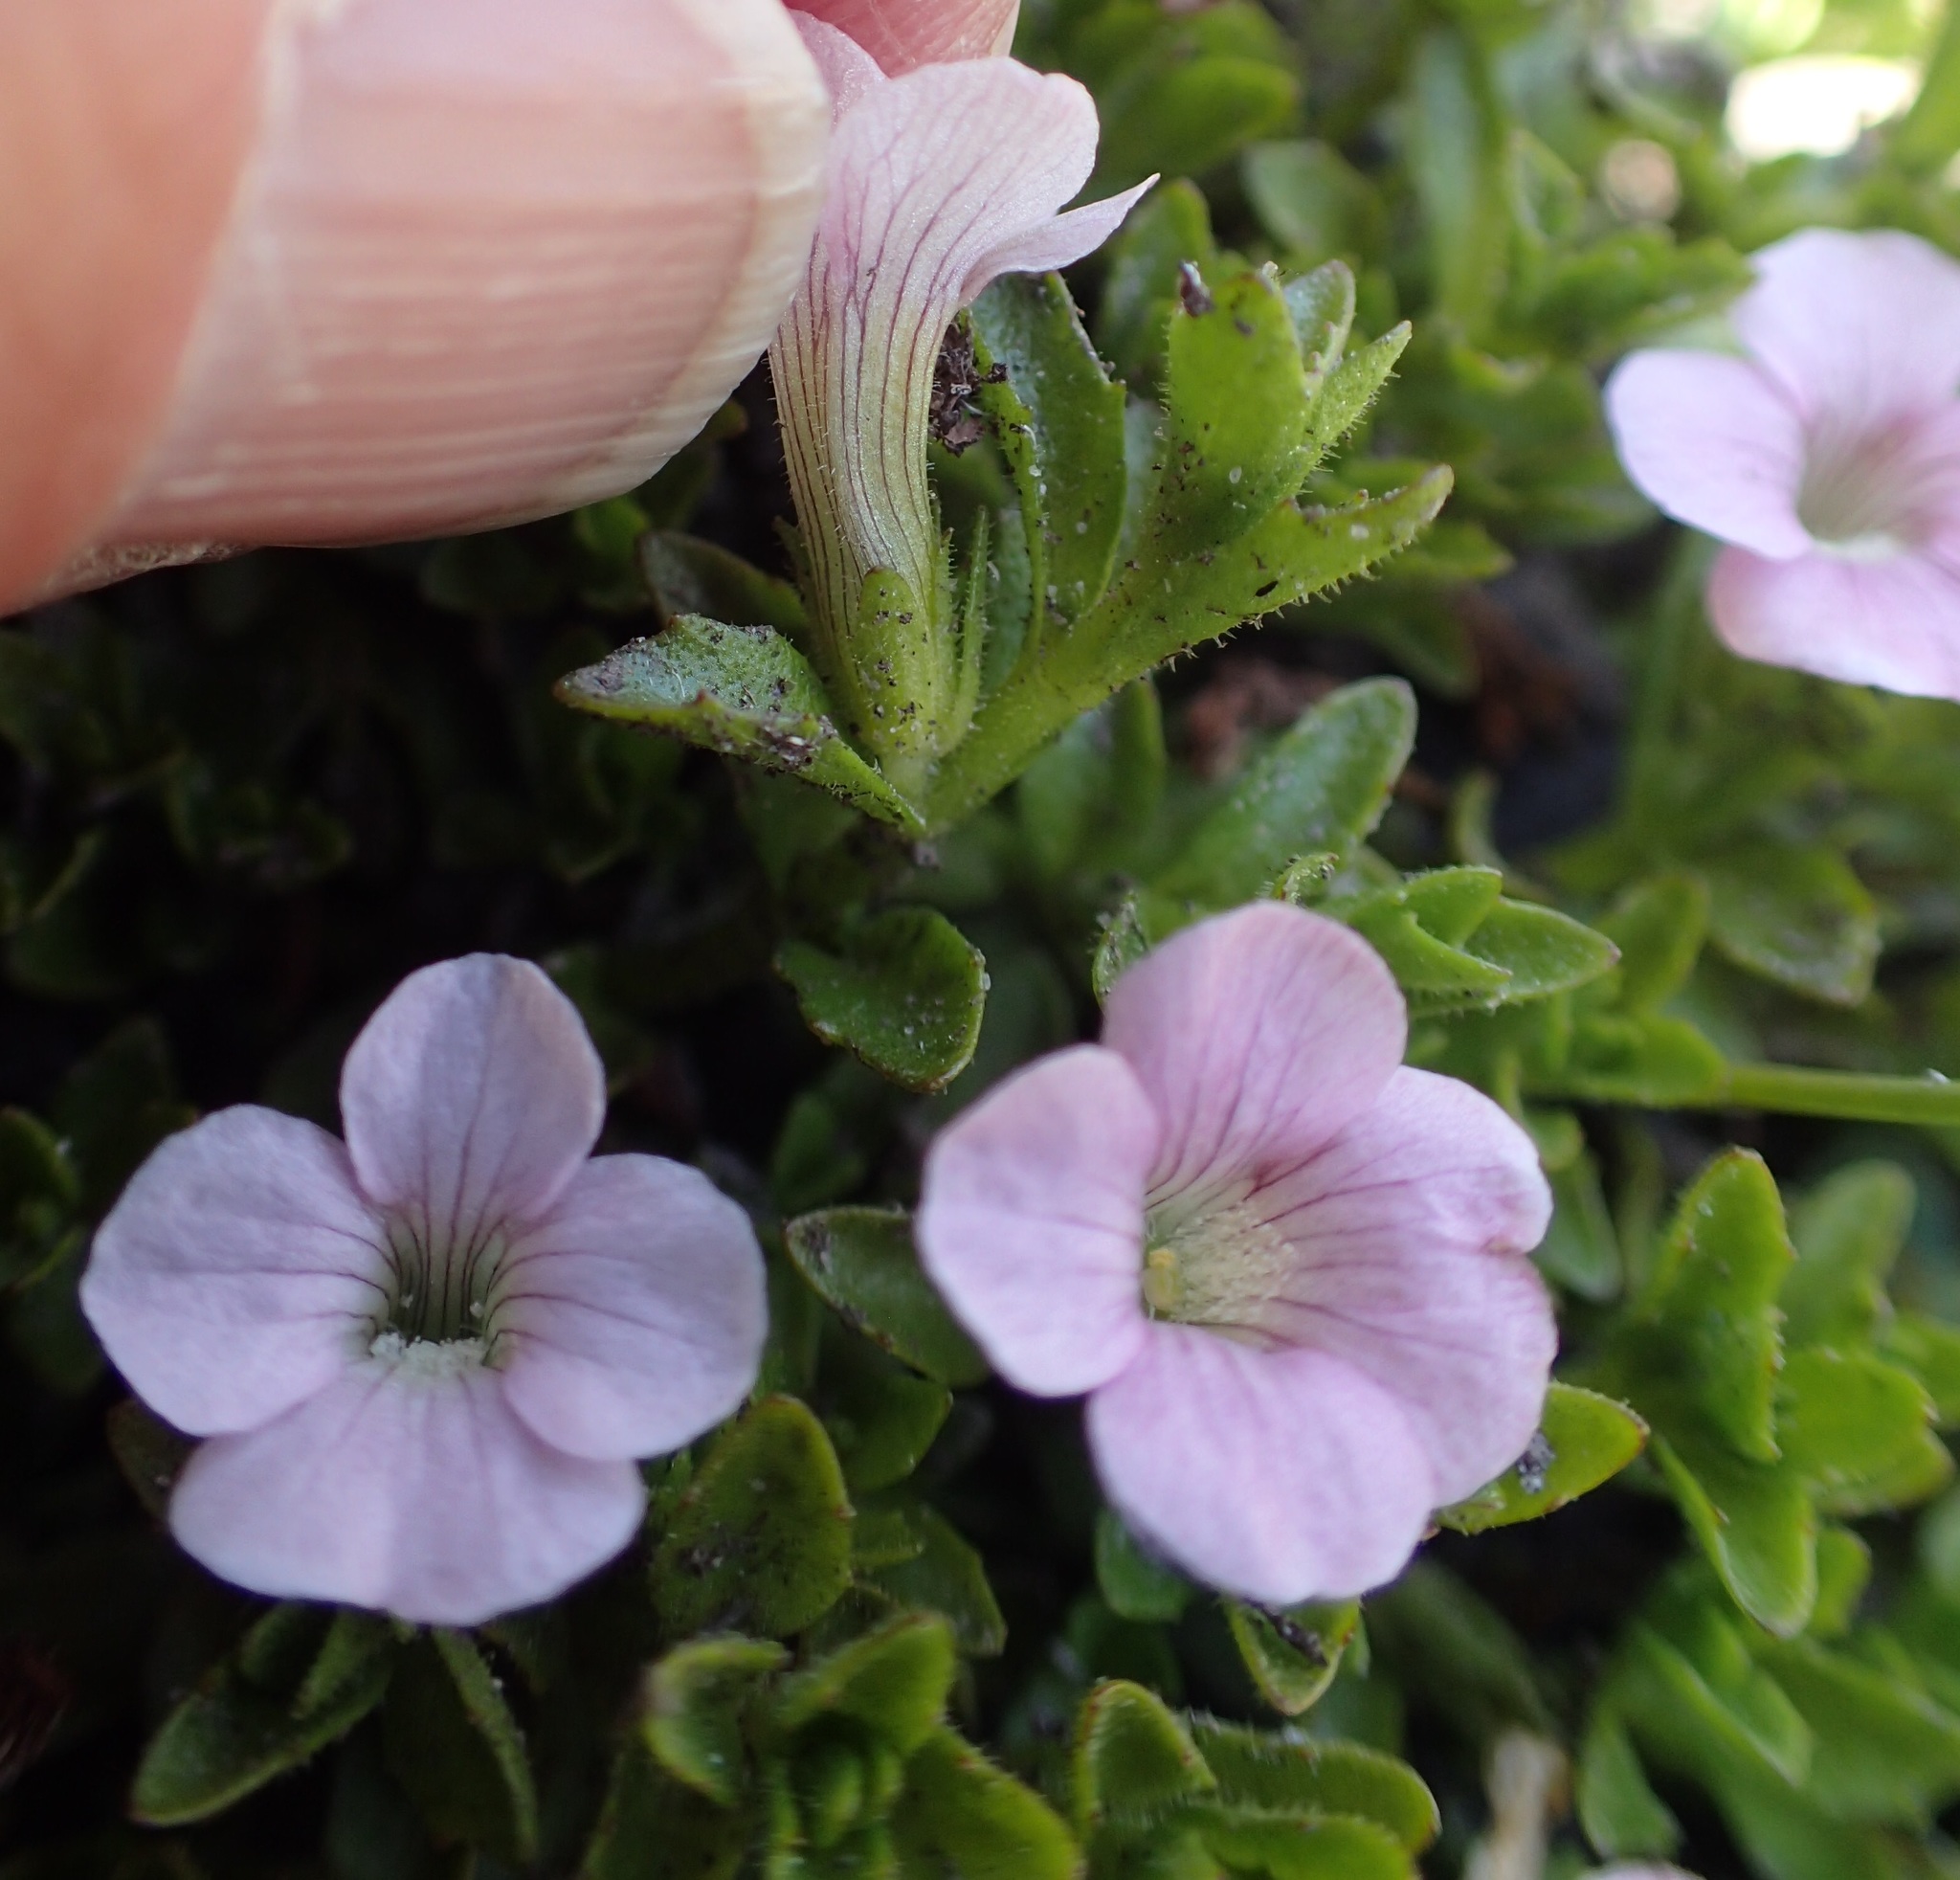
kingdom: Plantae
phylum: Tracheophyta
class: Magnoliopsida
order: Lamiales
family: Plantaginaceae
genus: Gratiola
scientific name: Gratiola pubescens
